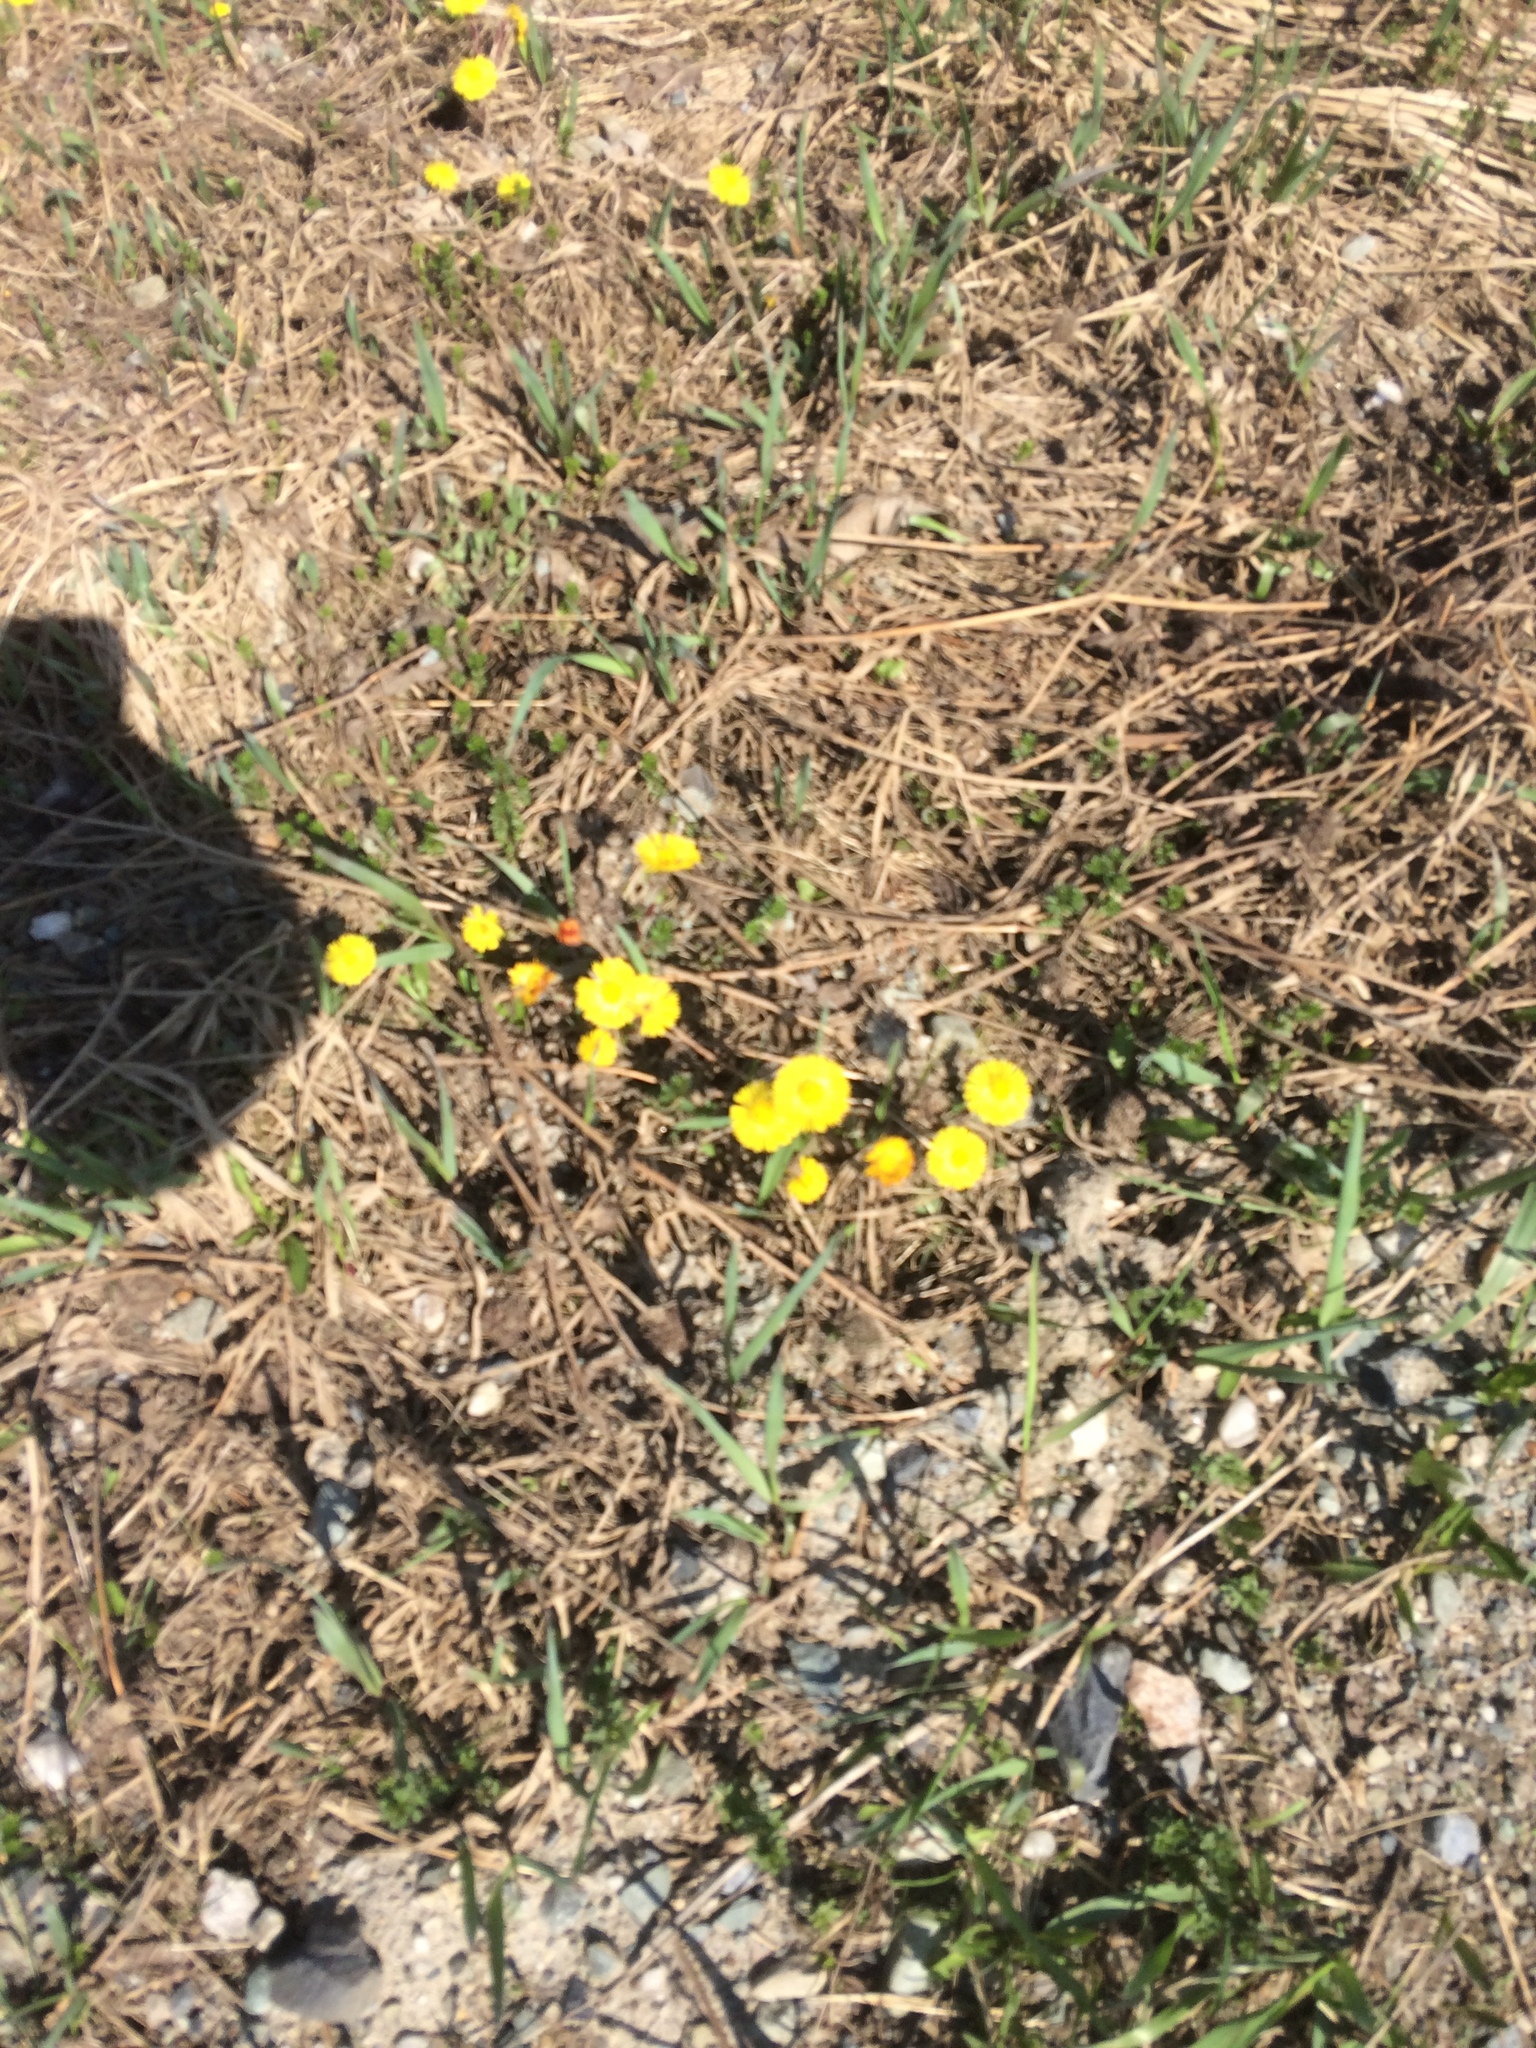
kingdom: Plantae
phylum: Tracheophyta
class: Magnoliopsida
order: Asterales
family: Asteraceae
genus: Tussilago
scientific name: Tussilago farfara
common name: Coltsfoot
